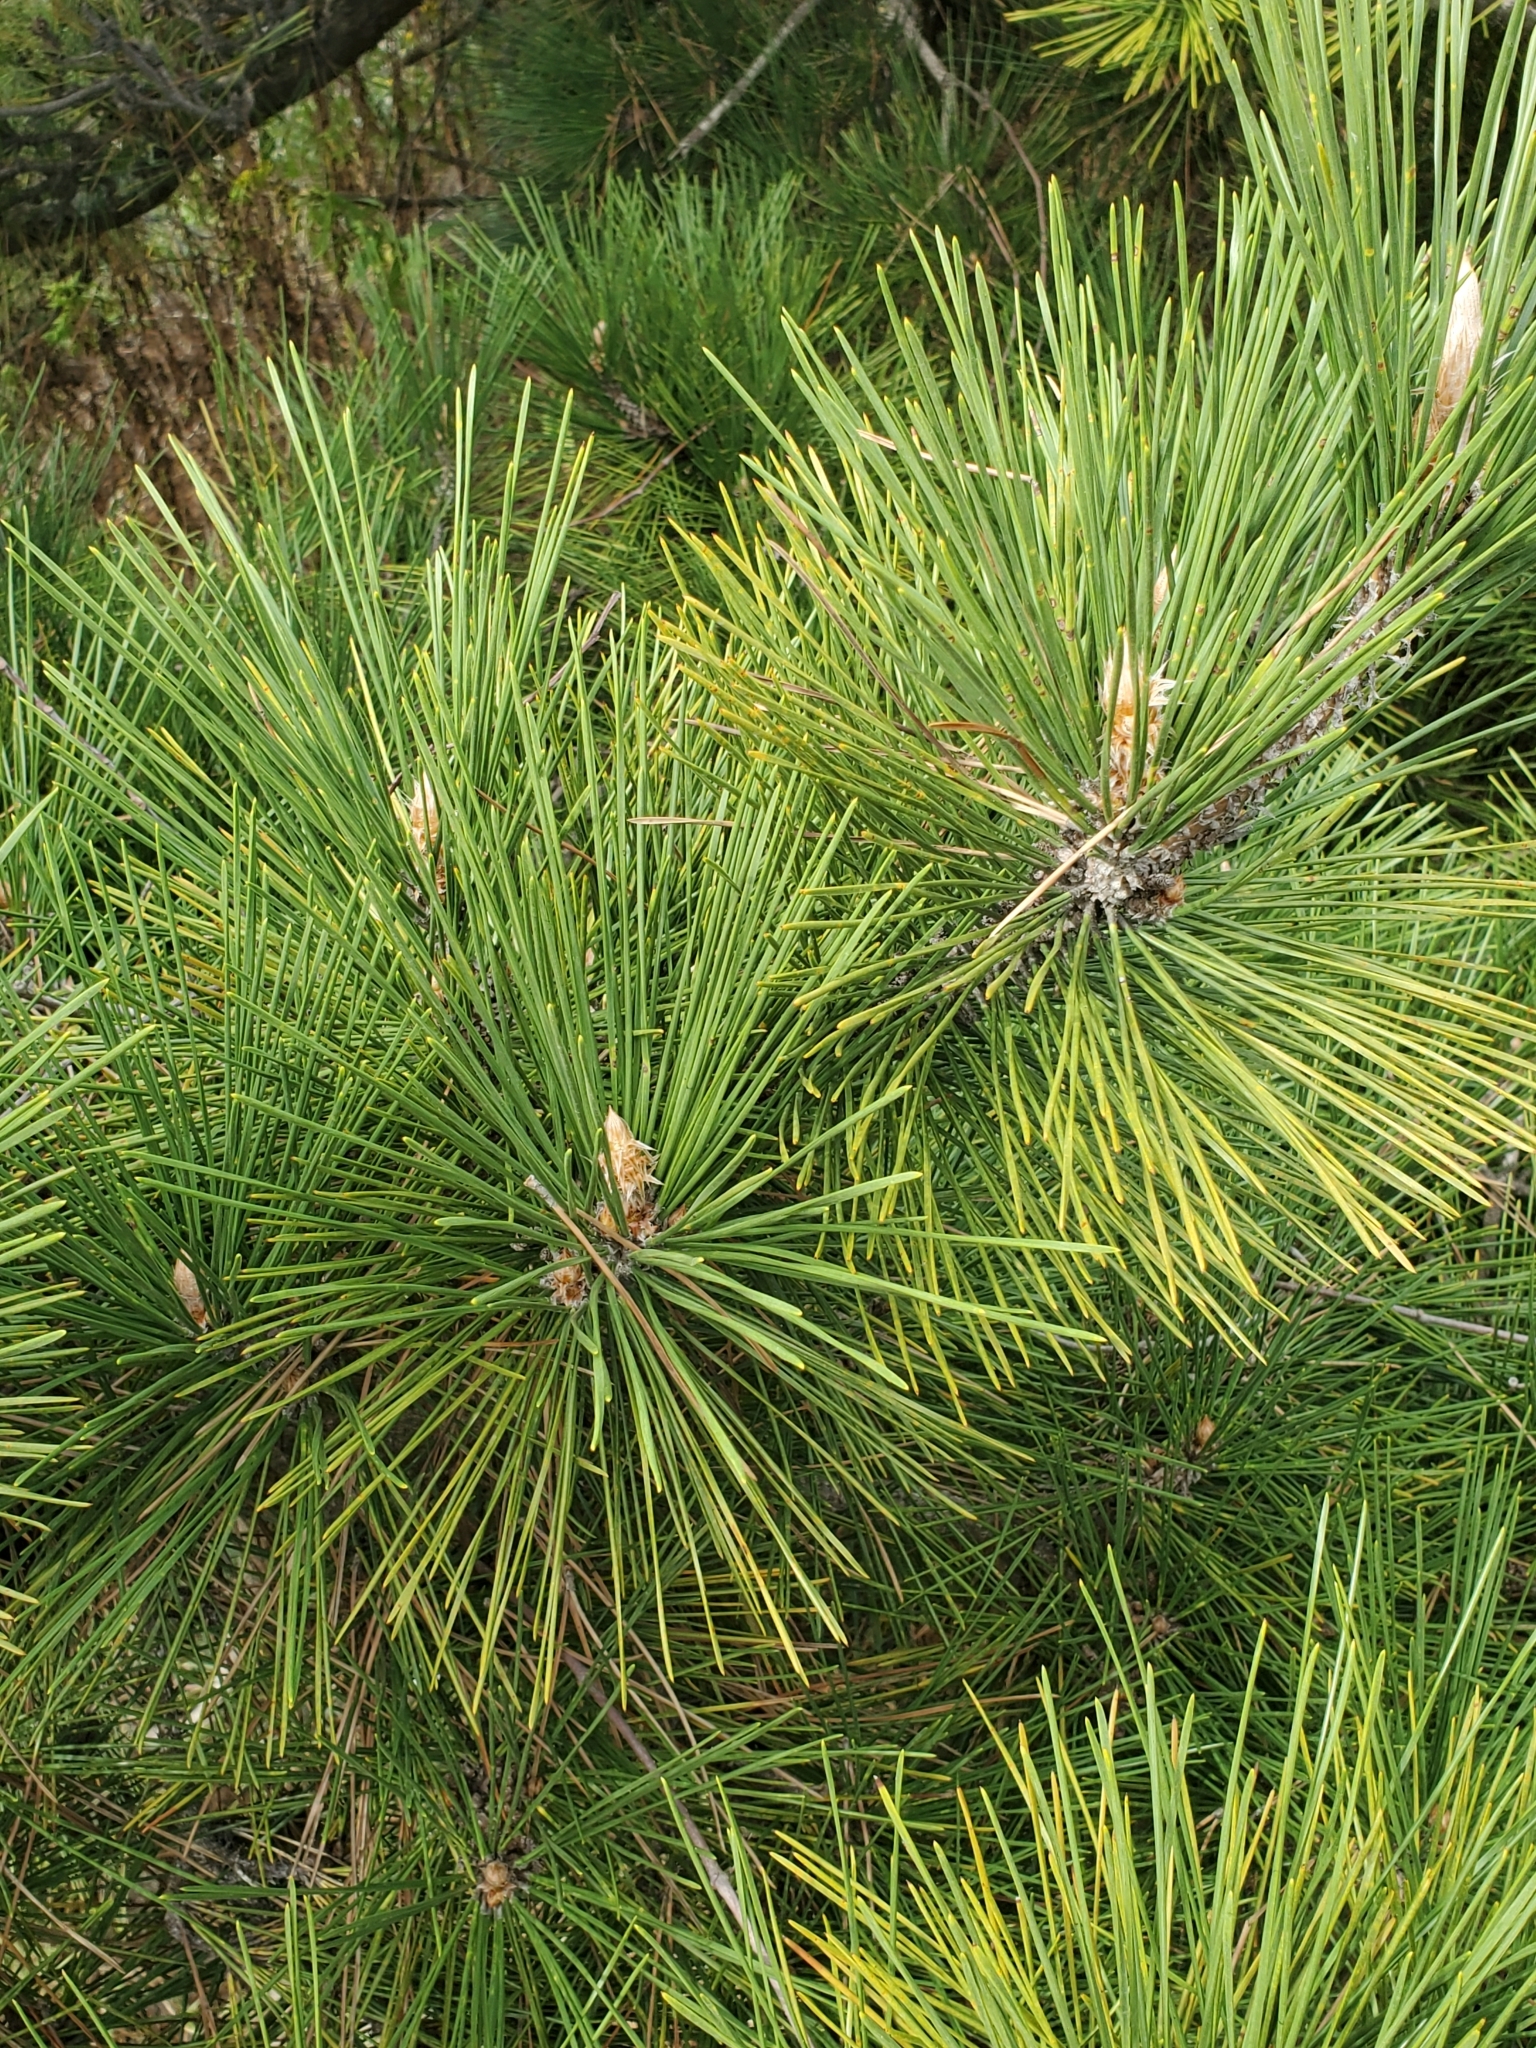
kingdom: Plantae
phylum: Tracheophyta
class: Pinopsida
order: Pinales
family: Pinaceae
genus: Pinus
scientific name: Pinus resinosa
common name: Norway pine
